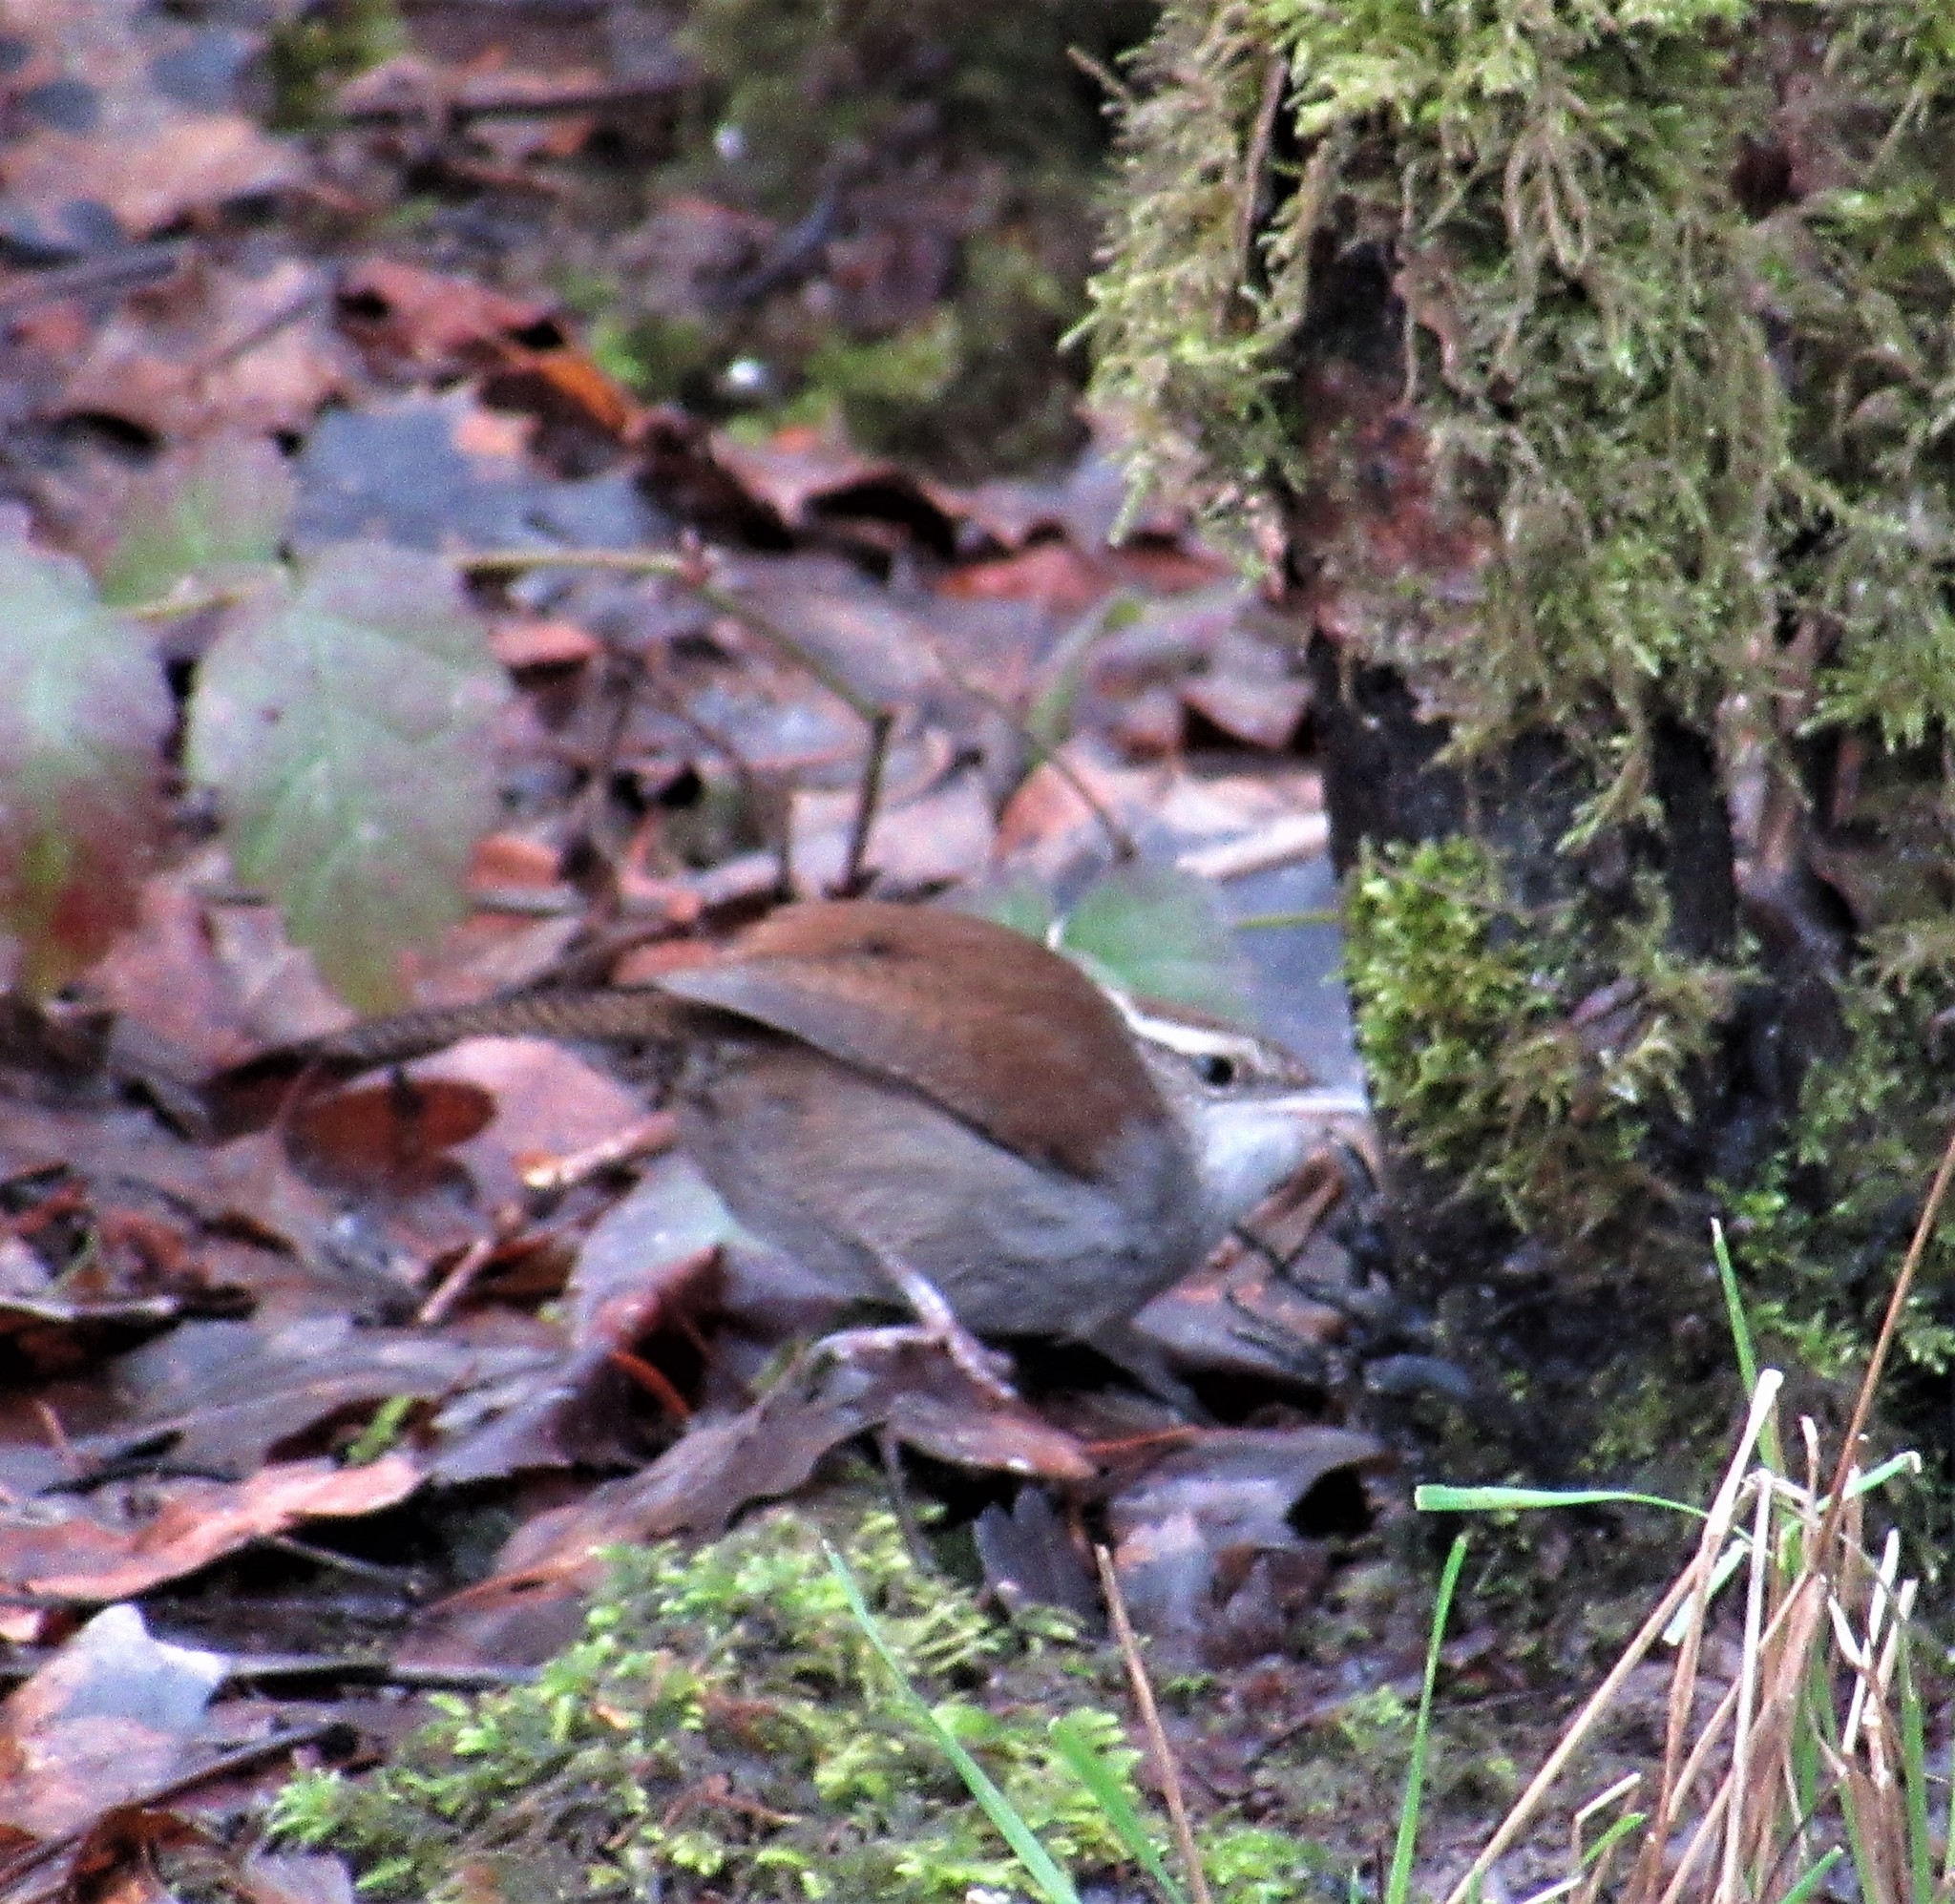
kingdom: Animalia
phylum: Chordata
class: Aves
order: Passeriformes
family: Troglodytidae
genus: Thryomanes
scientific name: Thryomanes bewickii
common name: Bewick's wren
